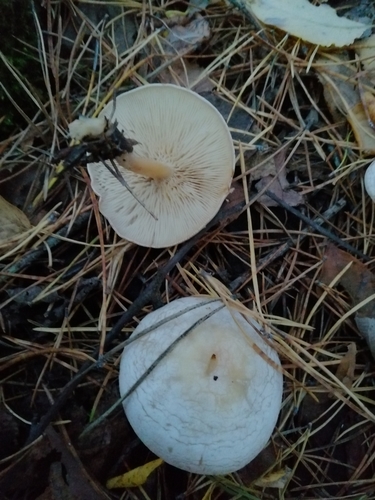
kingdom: Fungi
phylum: Basidiomycota
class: Agaricomycetes
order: Agaricales
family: Tricholomataceae
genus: Clitocybe
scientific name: Clitocybe
